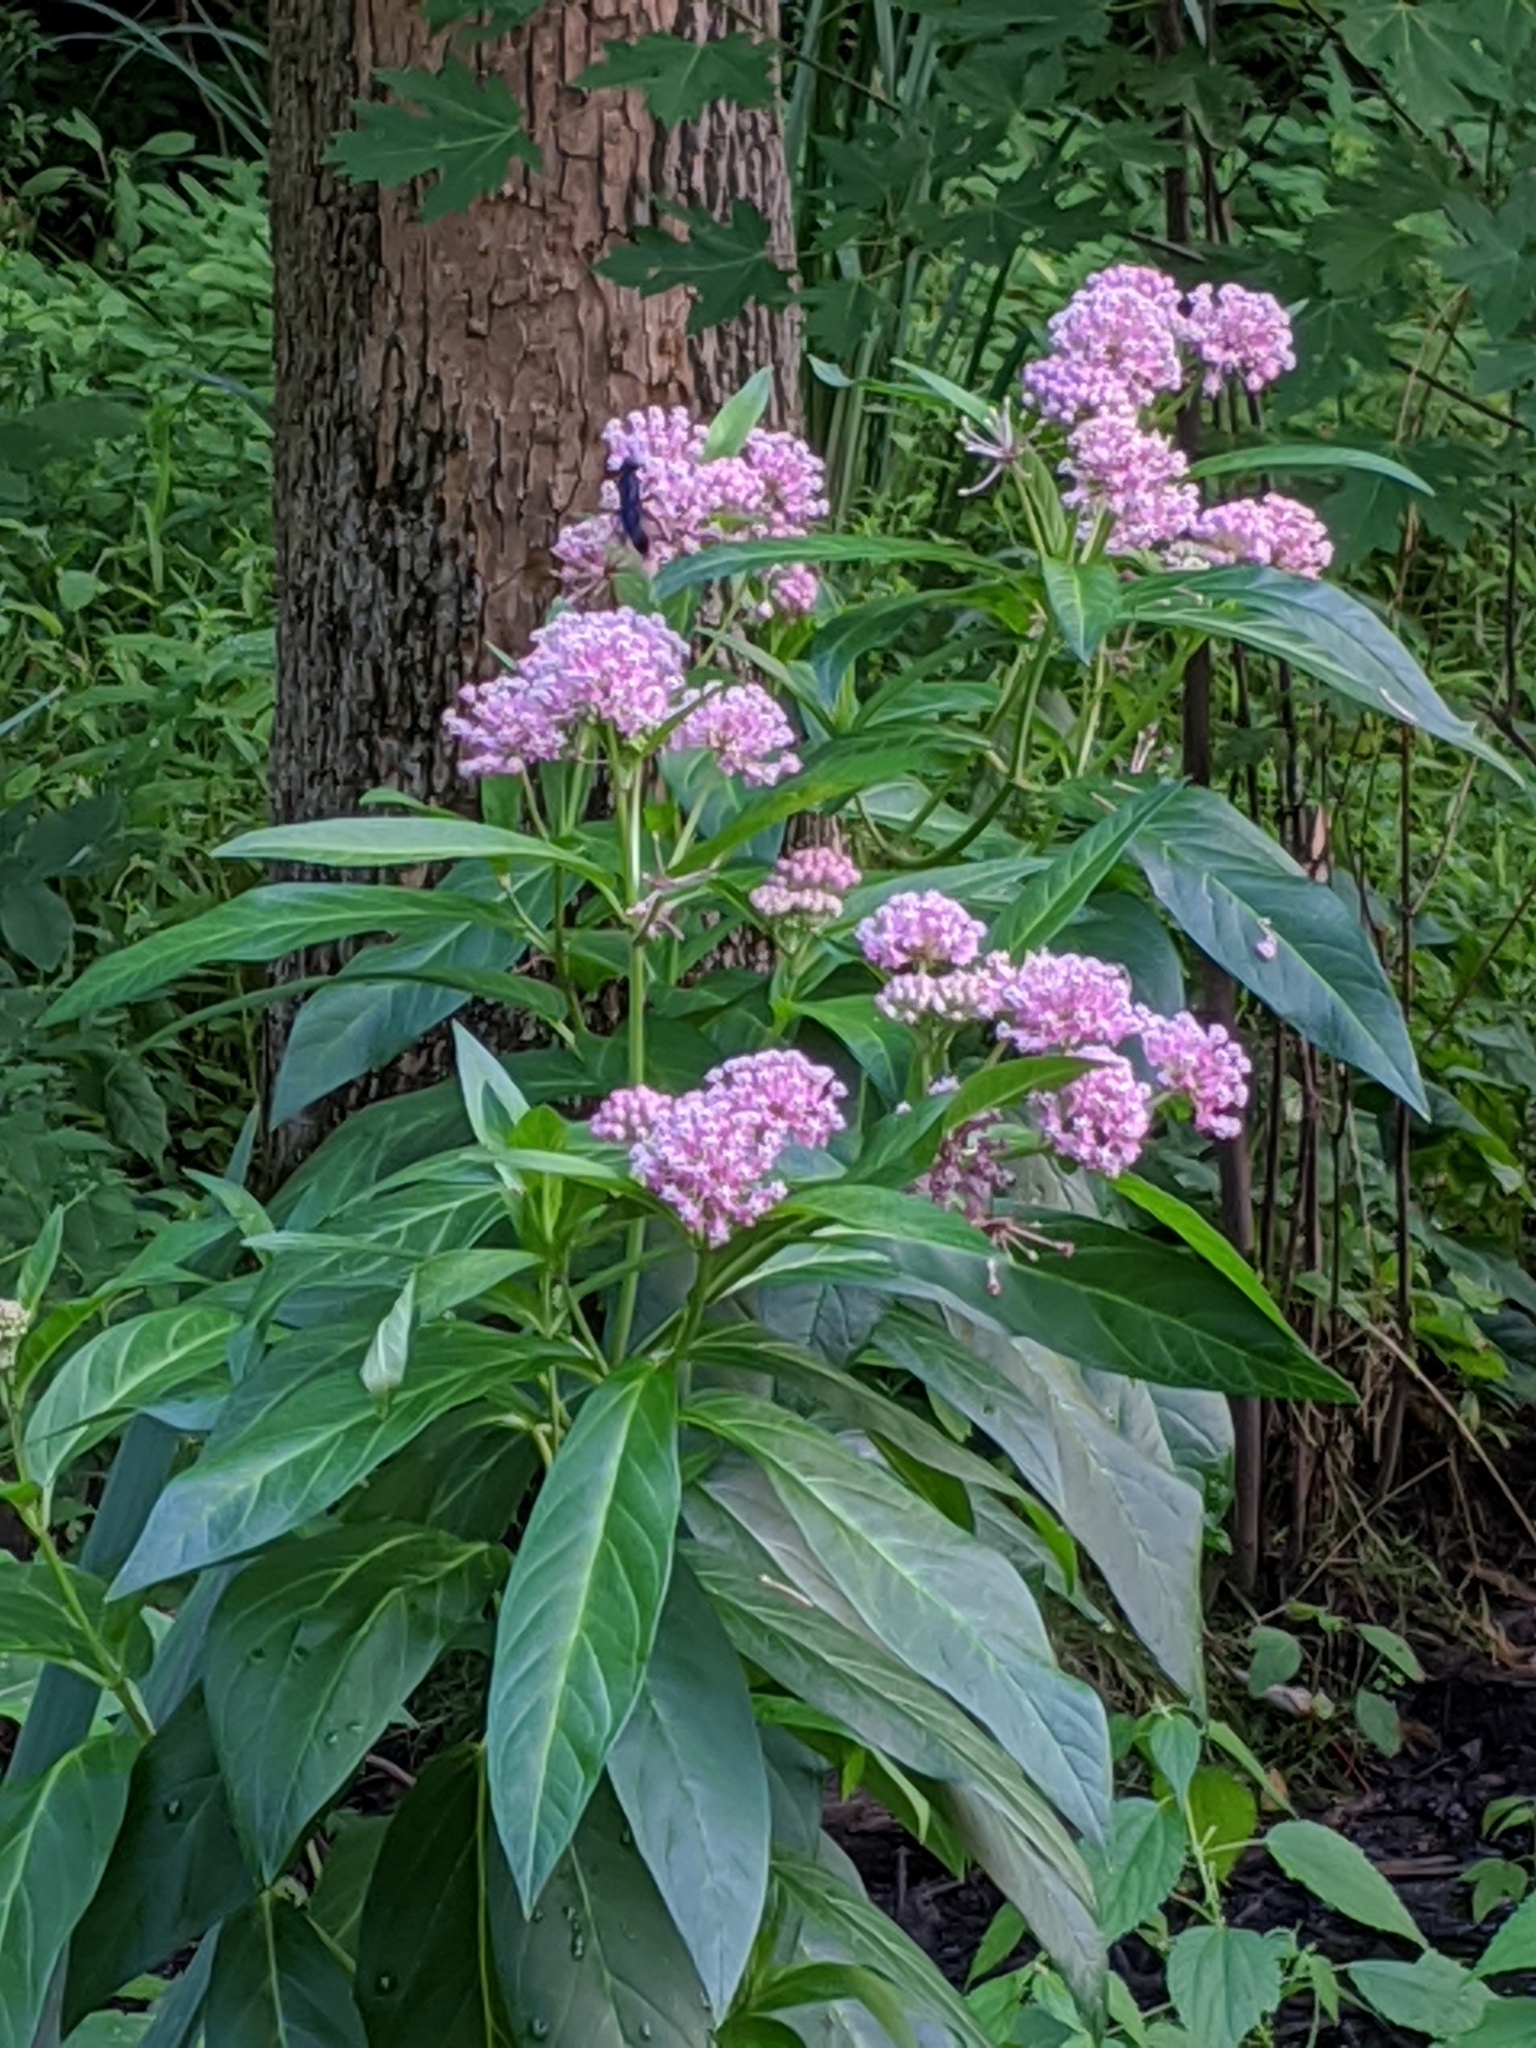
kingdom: Plantae
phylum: Tracheophyta
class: Magnoliopsida
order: Gentianales
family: Apocynaceae
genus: Asclepias
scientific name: Asclepias incarnata
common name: Swamp milkweed
